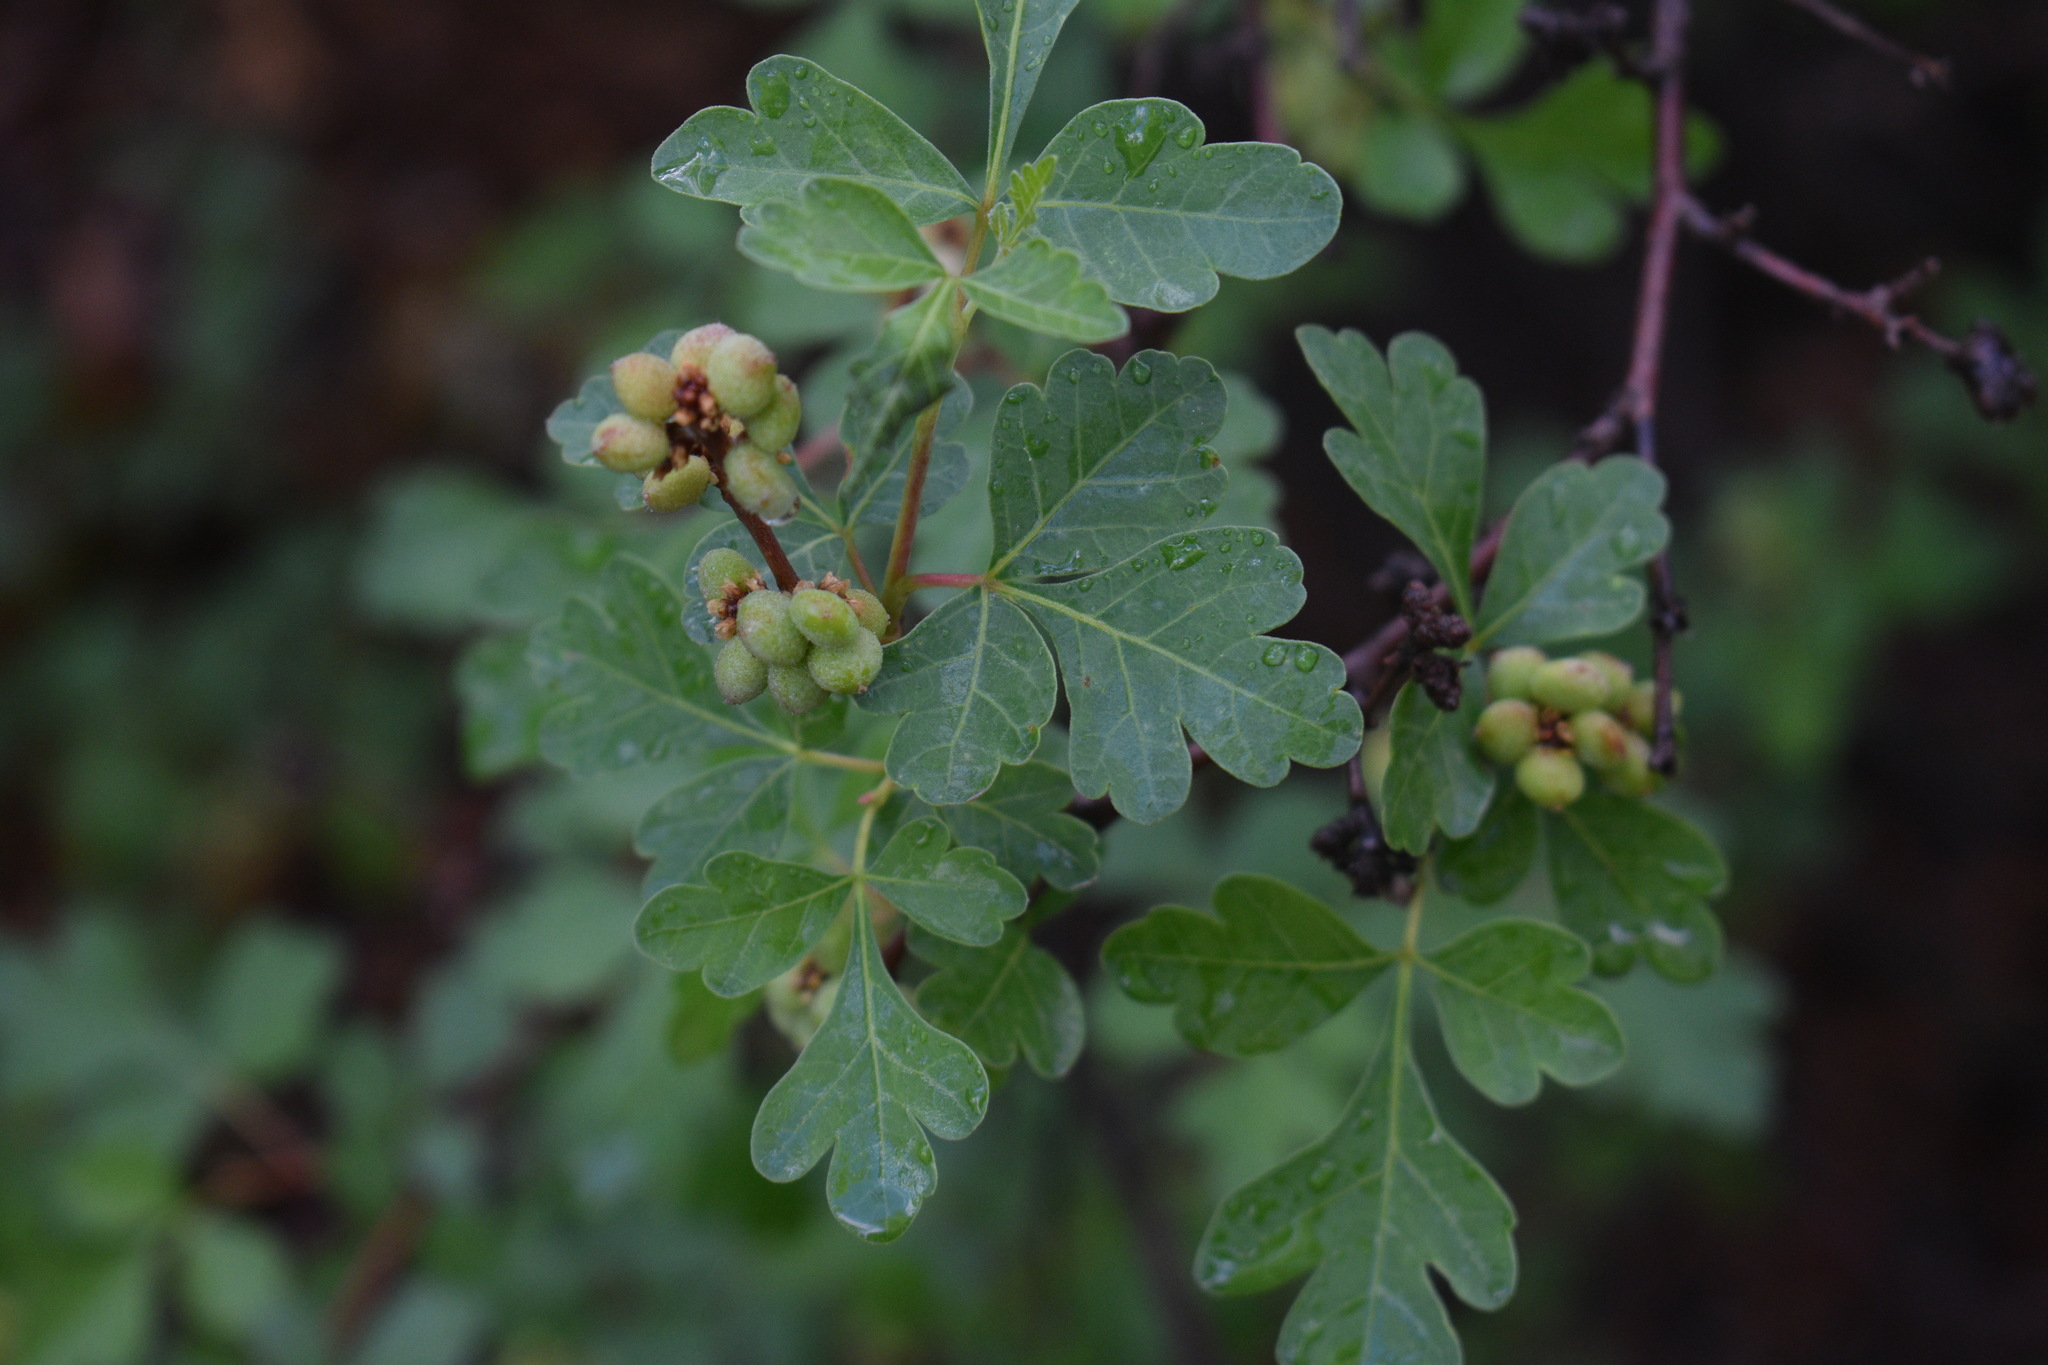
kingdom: Plantae
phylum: Tracheophyta
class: Magnoliopsida
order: Sapindales
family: Anacardiaceae
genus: Rhus
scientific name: Rhus aromatica
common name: Aromatic sumac
